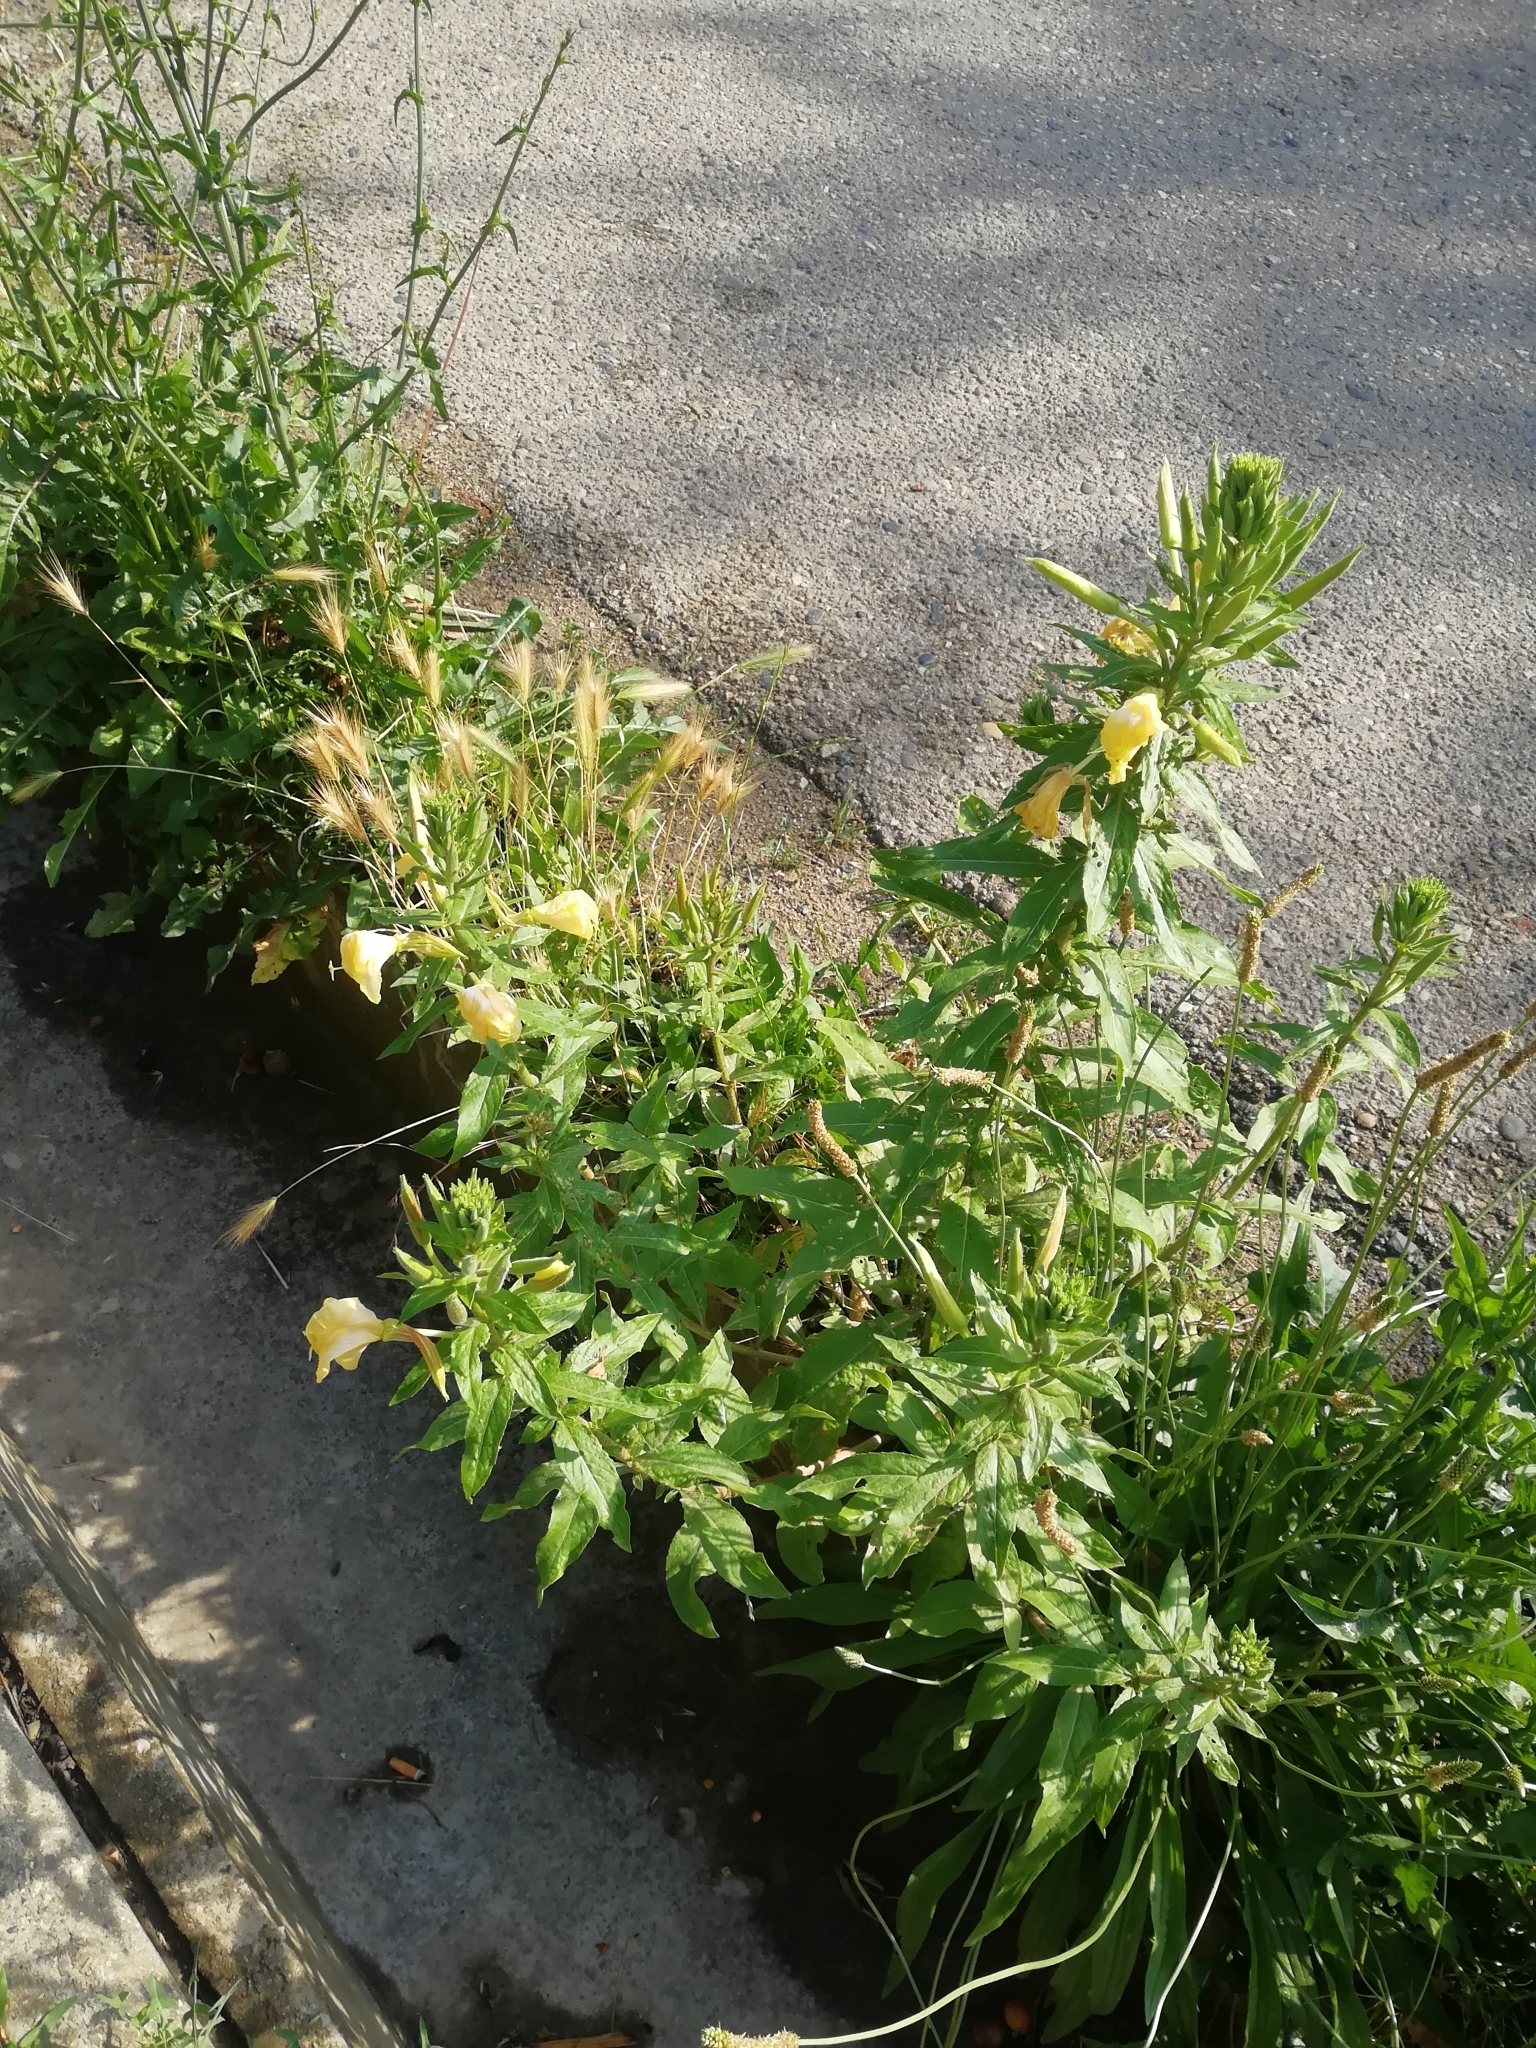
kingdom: Plantae
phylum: Tracheophyta
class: Magnoliopsida
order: Myrtales
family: Onagraceae
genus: Oenothera
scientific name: Oenothera glazioviana
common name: Large-flowered evening-primrose
